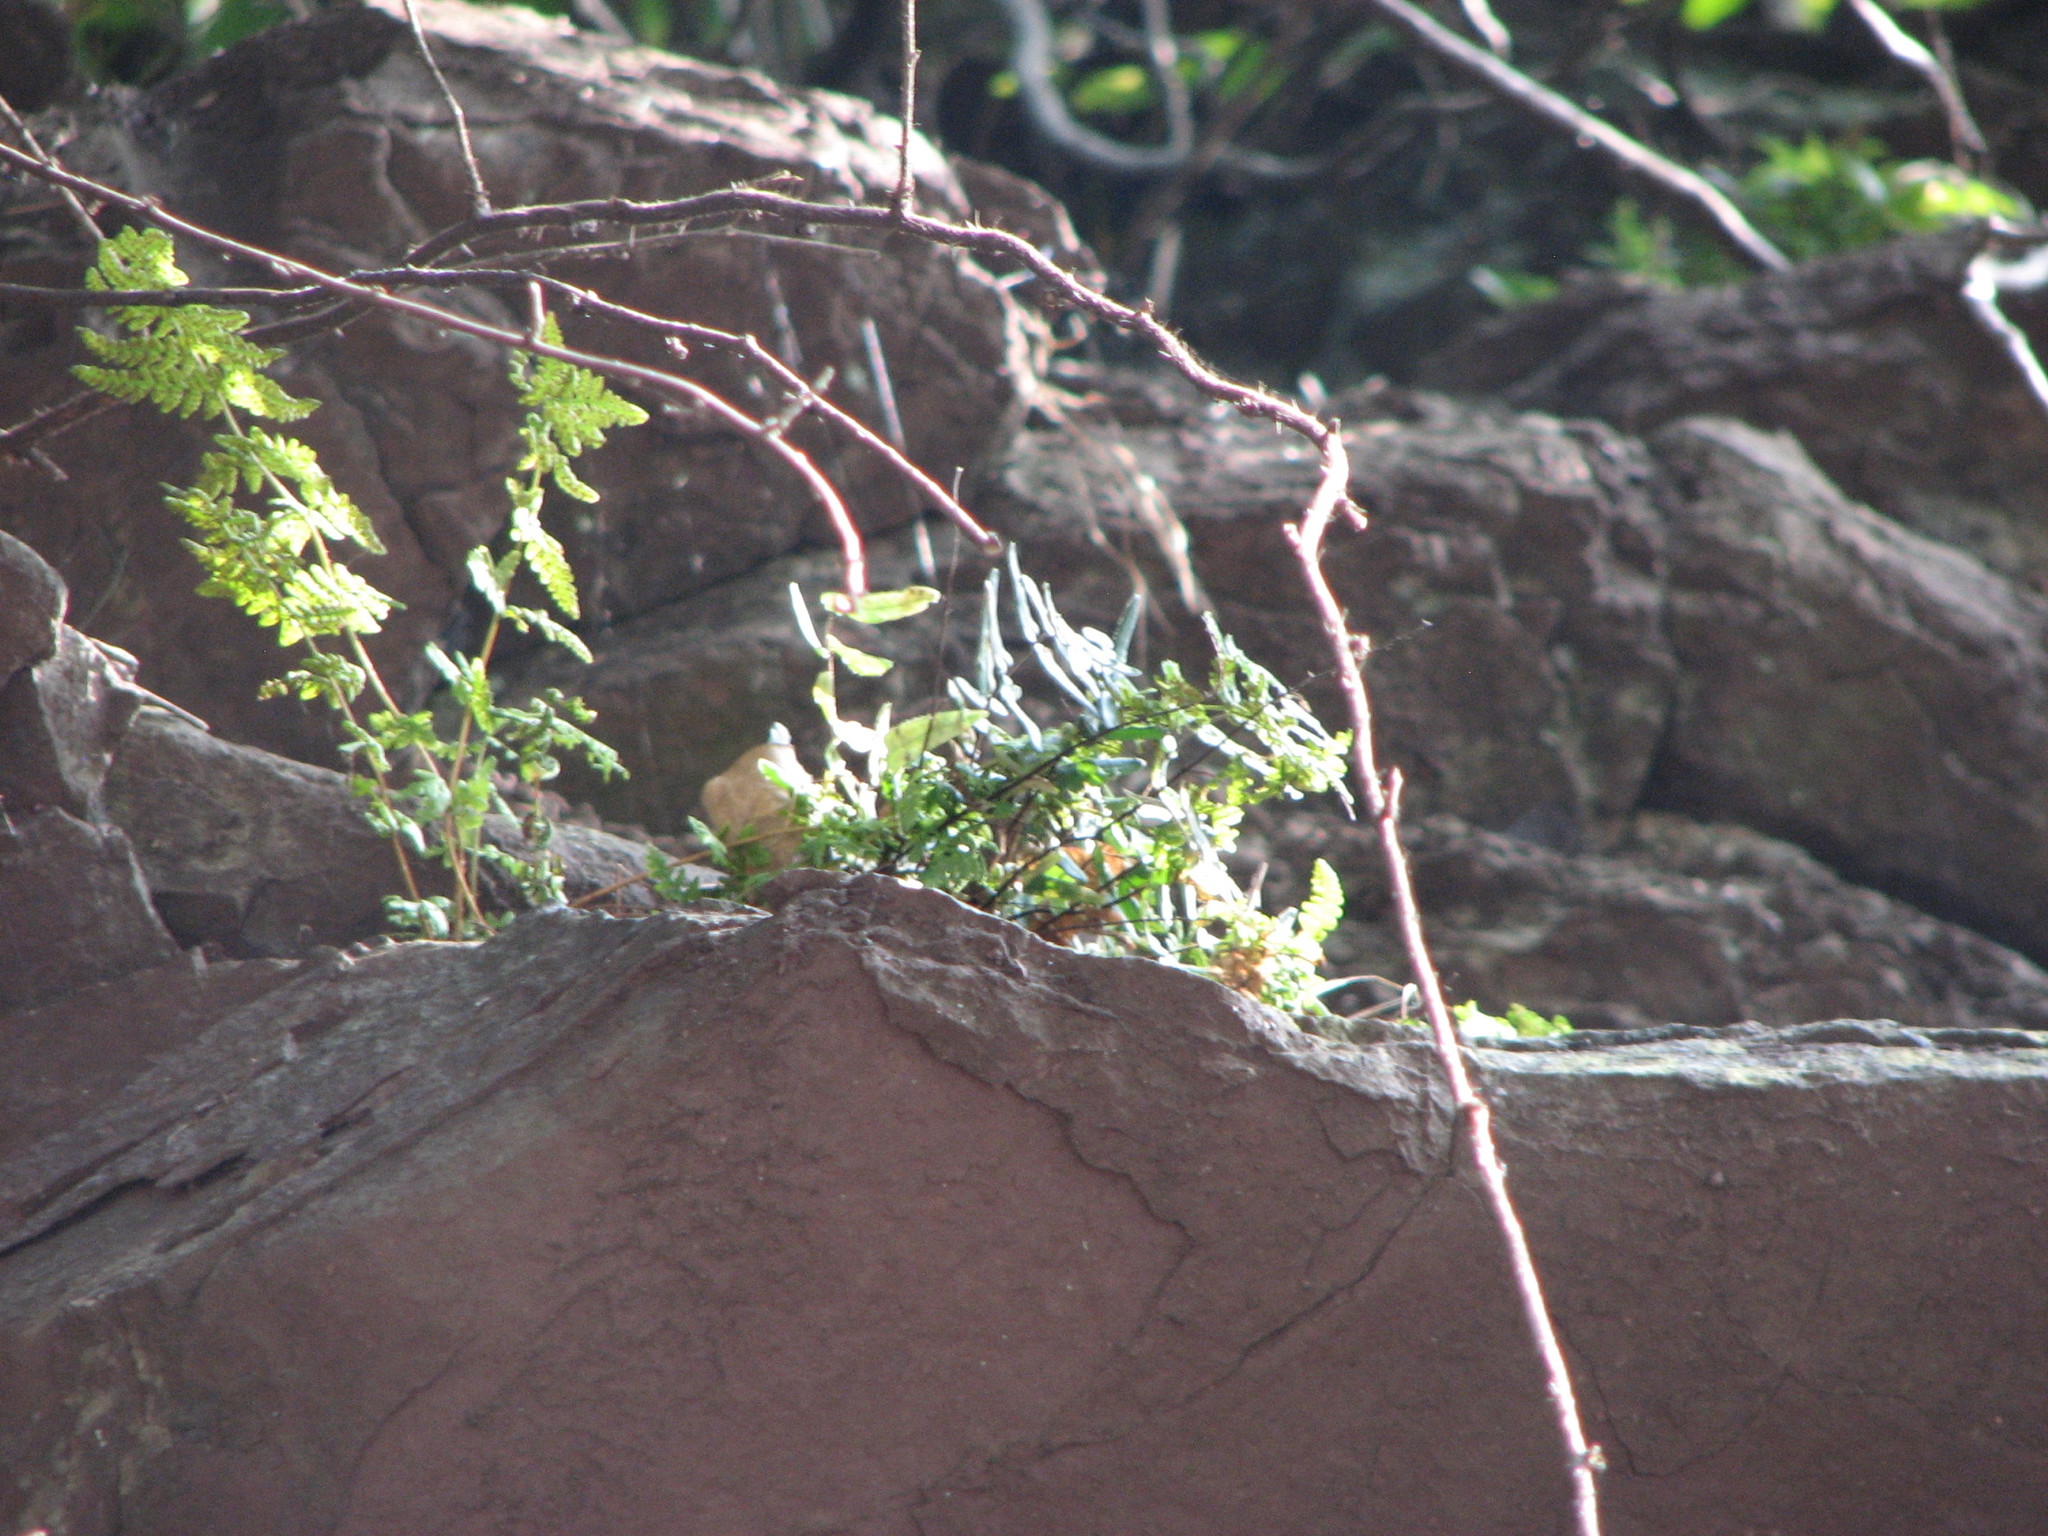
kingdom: Plantae
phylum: Tracheophyta
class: Polypodiopsida
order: Polypodiales
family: Pteridaceae
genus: Pellaea
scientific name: Pellaea atropurpurea
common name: Hairy cliffbrake
